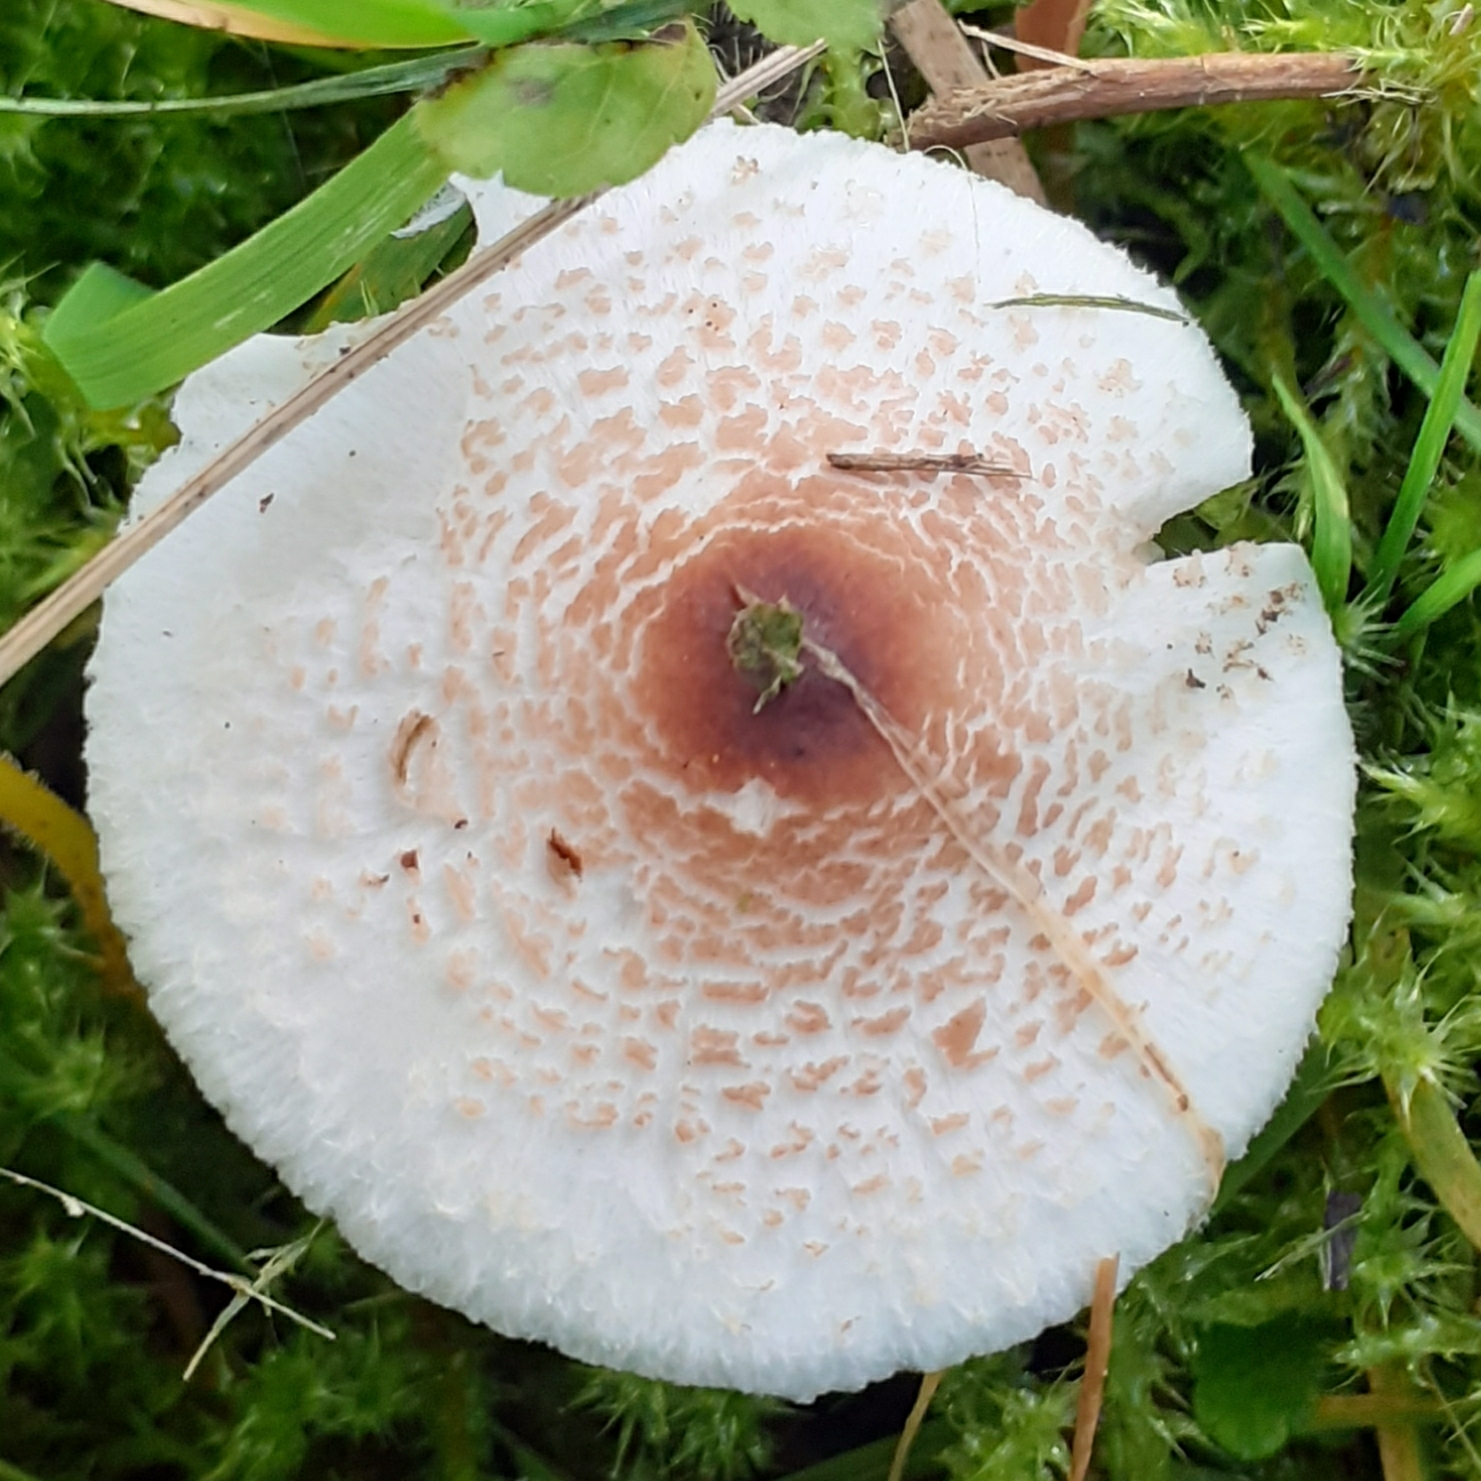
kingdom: Fungi
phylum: Basidiomycota
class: Agaricomycetes
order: Agaricales
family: Agaricaceae
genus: Lepiota
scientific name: Lepiota cristata
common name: Stinking dapperling
